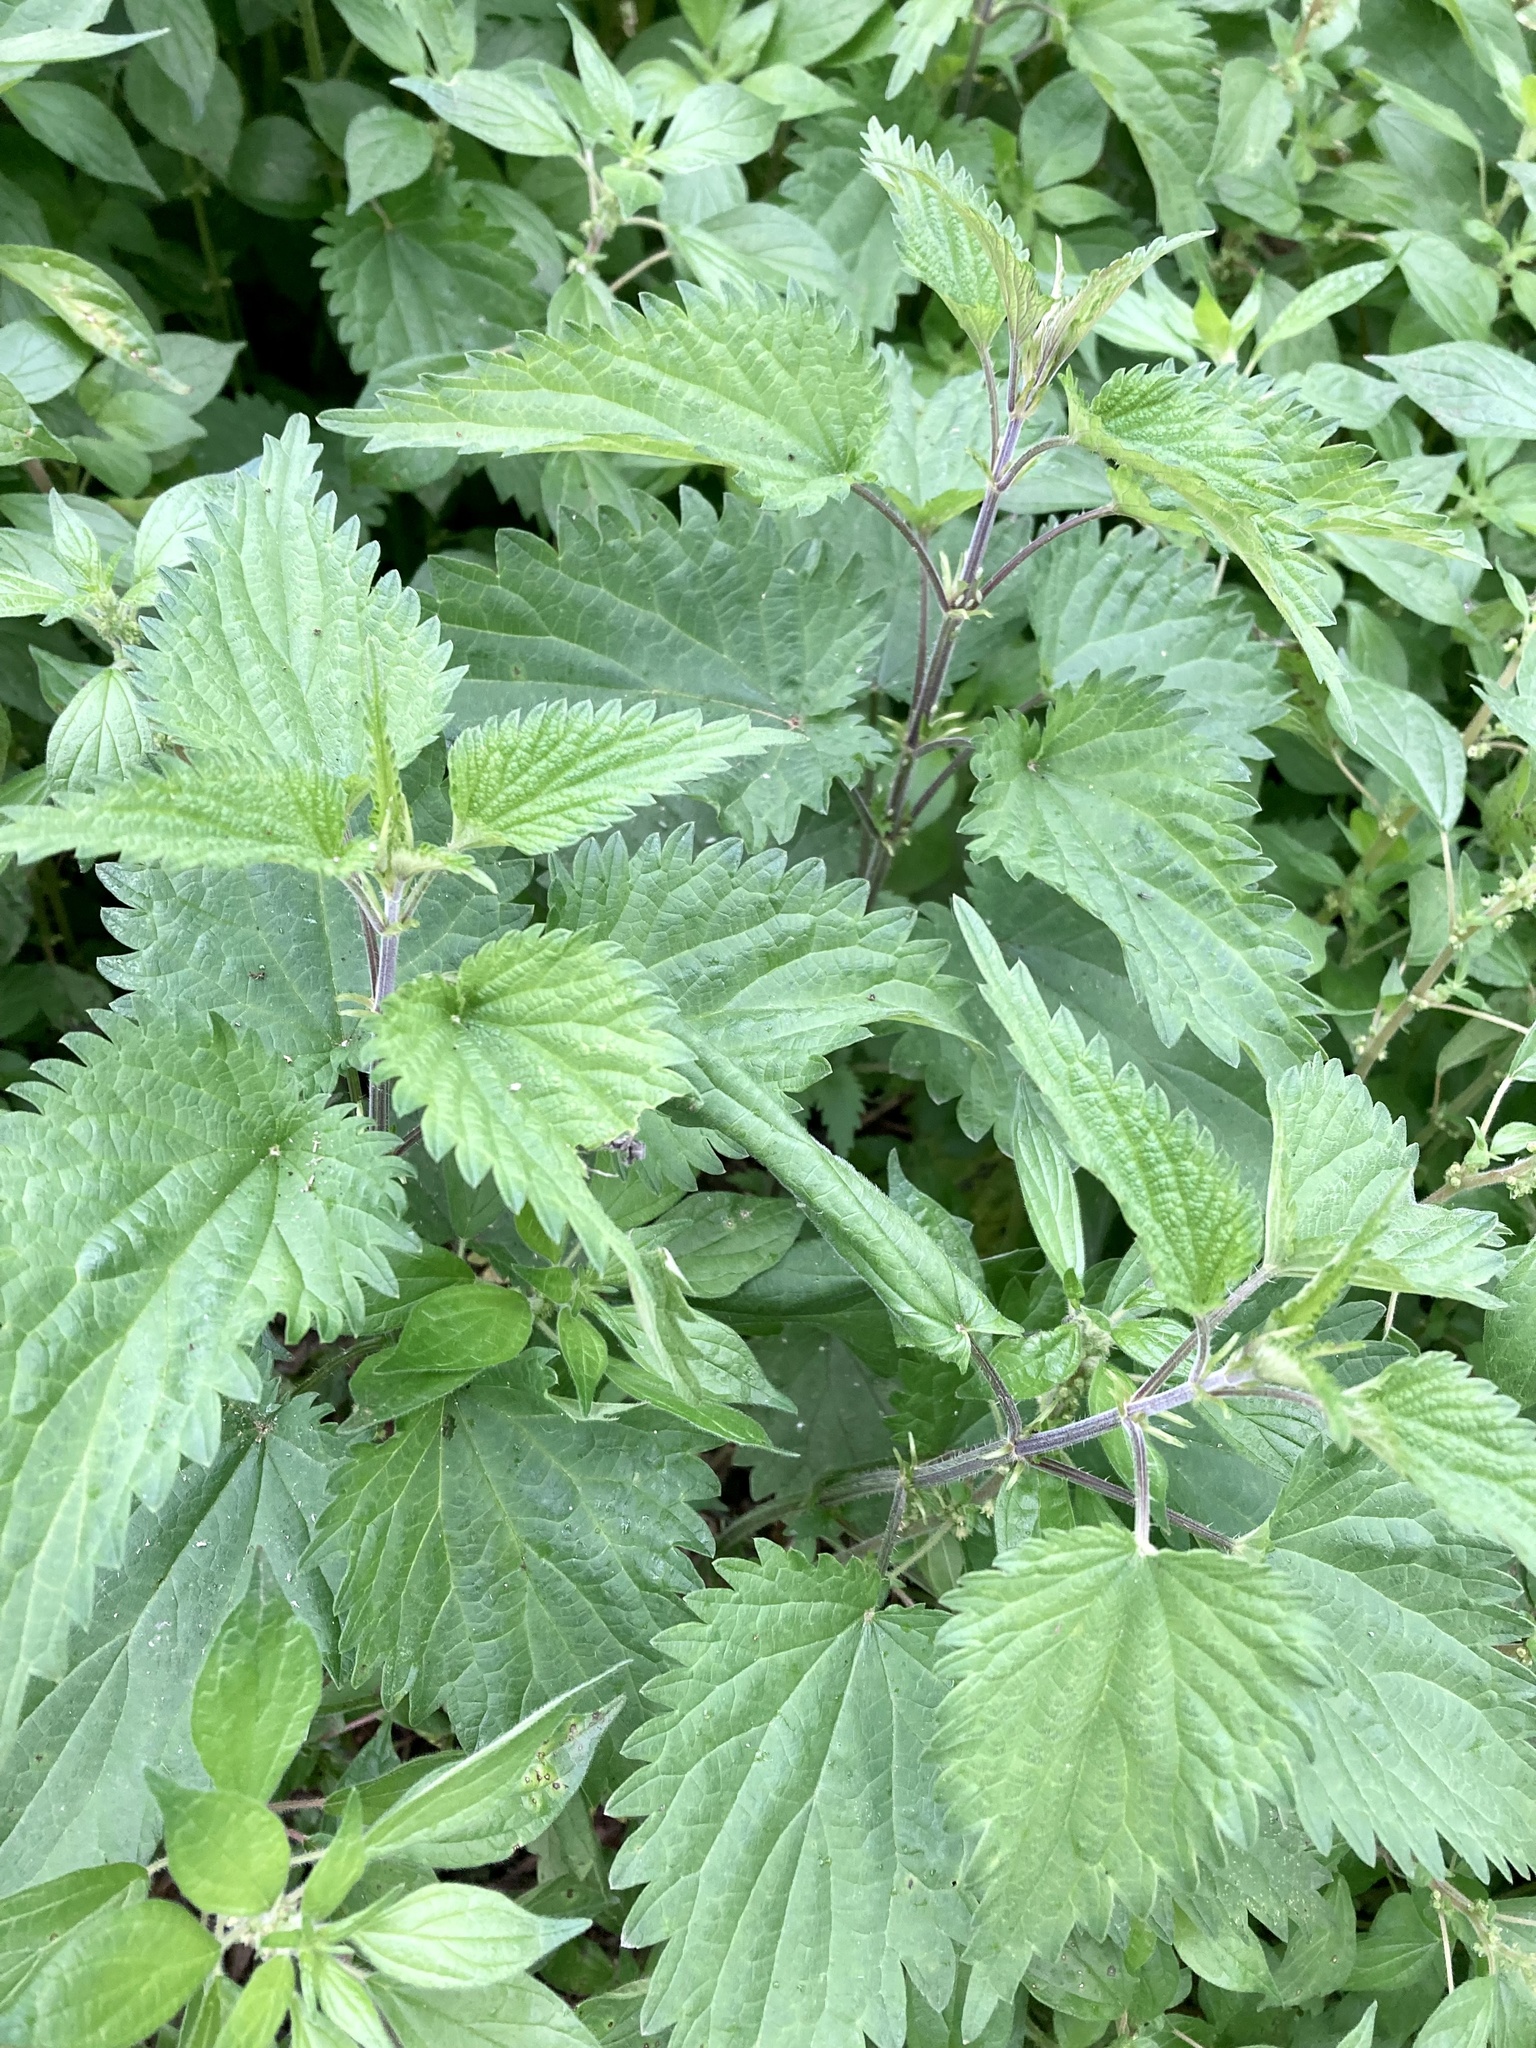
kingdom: Plantae
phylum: Tracheophyta
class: Magnoliopsida
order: Rosales
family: Urticaceae
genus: Urtica
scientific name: Urtica dioica
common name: Common nettle
